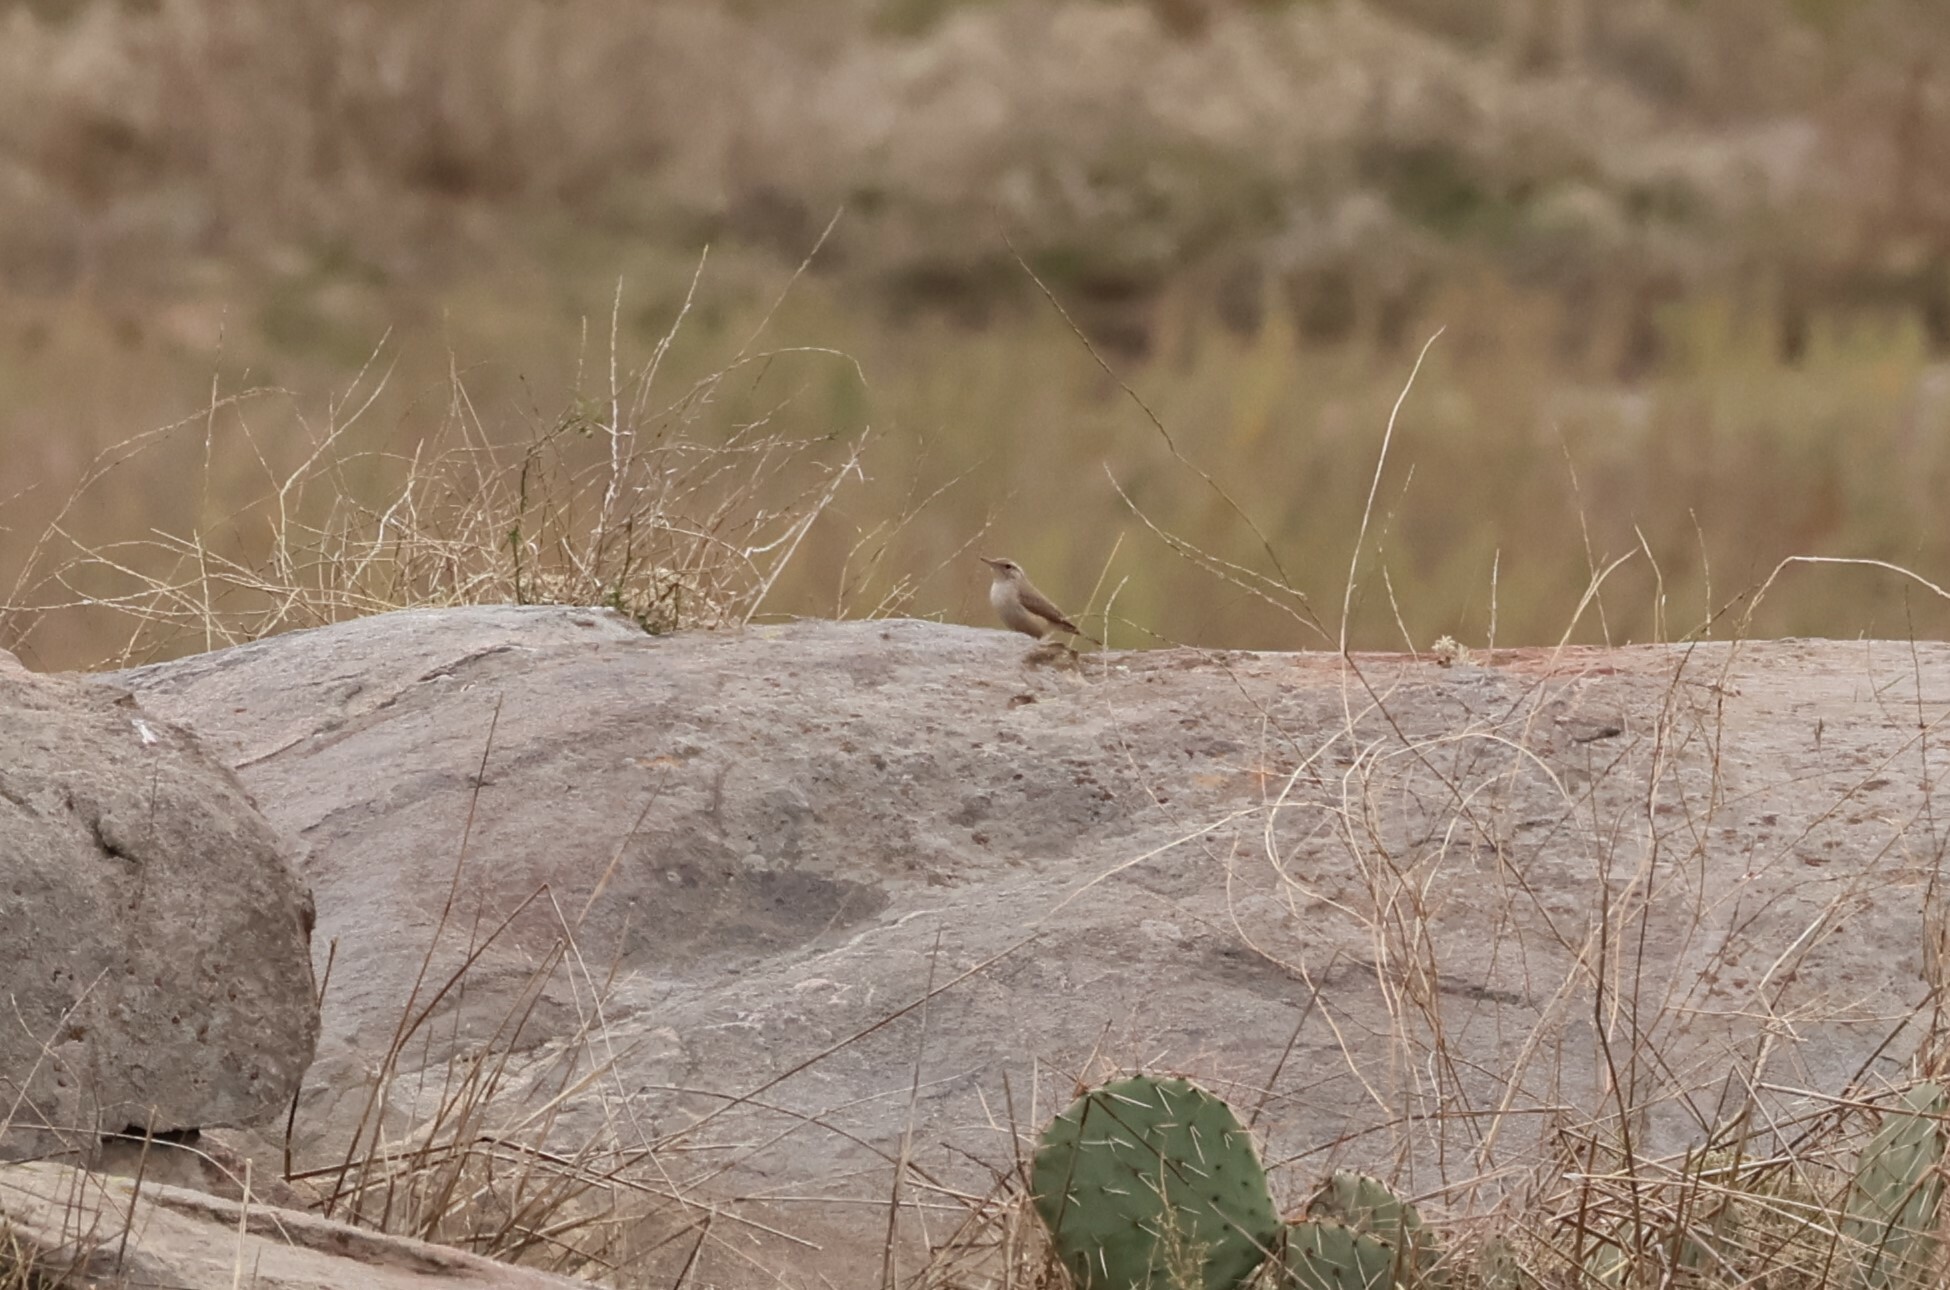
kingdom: Animalia
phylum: Chordata
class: Aves
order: Passeriformes
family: Troglodytidae
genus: Salpinctes
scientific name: Salpinctes obsoletus
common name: Rock wren
